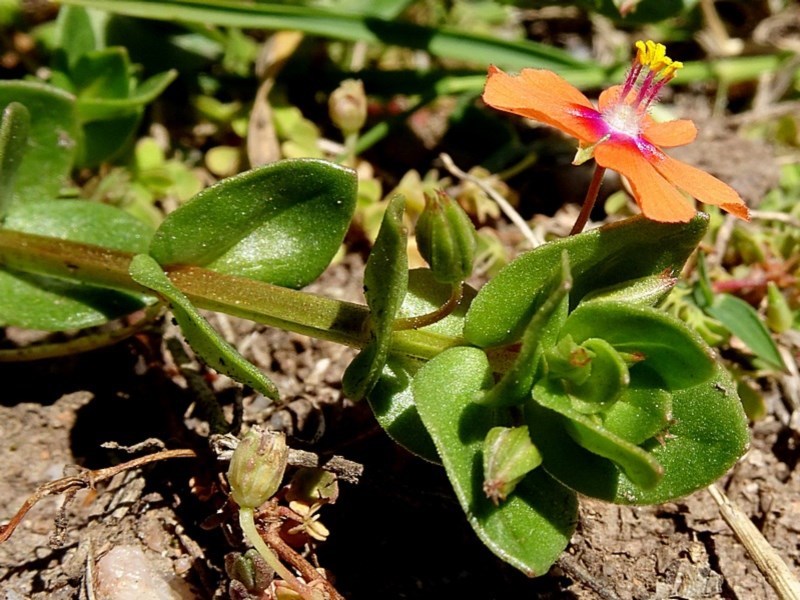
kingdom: Plantae
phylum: Tracheophyta
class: Magnoliopsida
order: Ericales
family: Primulaceae
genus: Lysimachia
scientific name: Lysimachia arvensis
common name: Scarlet pimpernel
